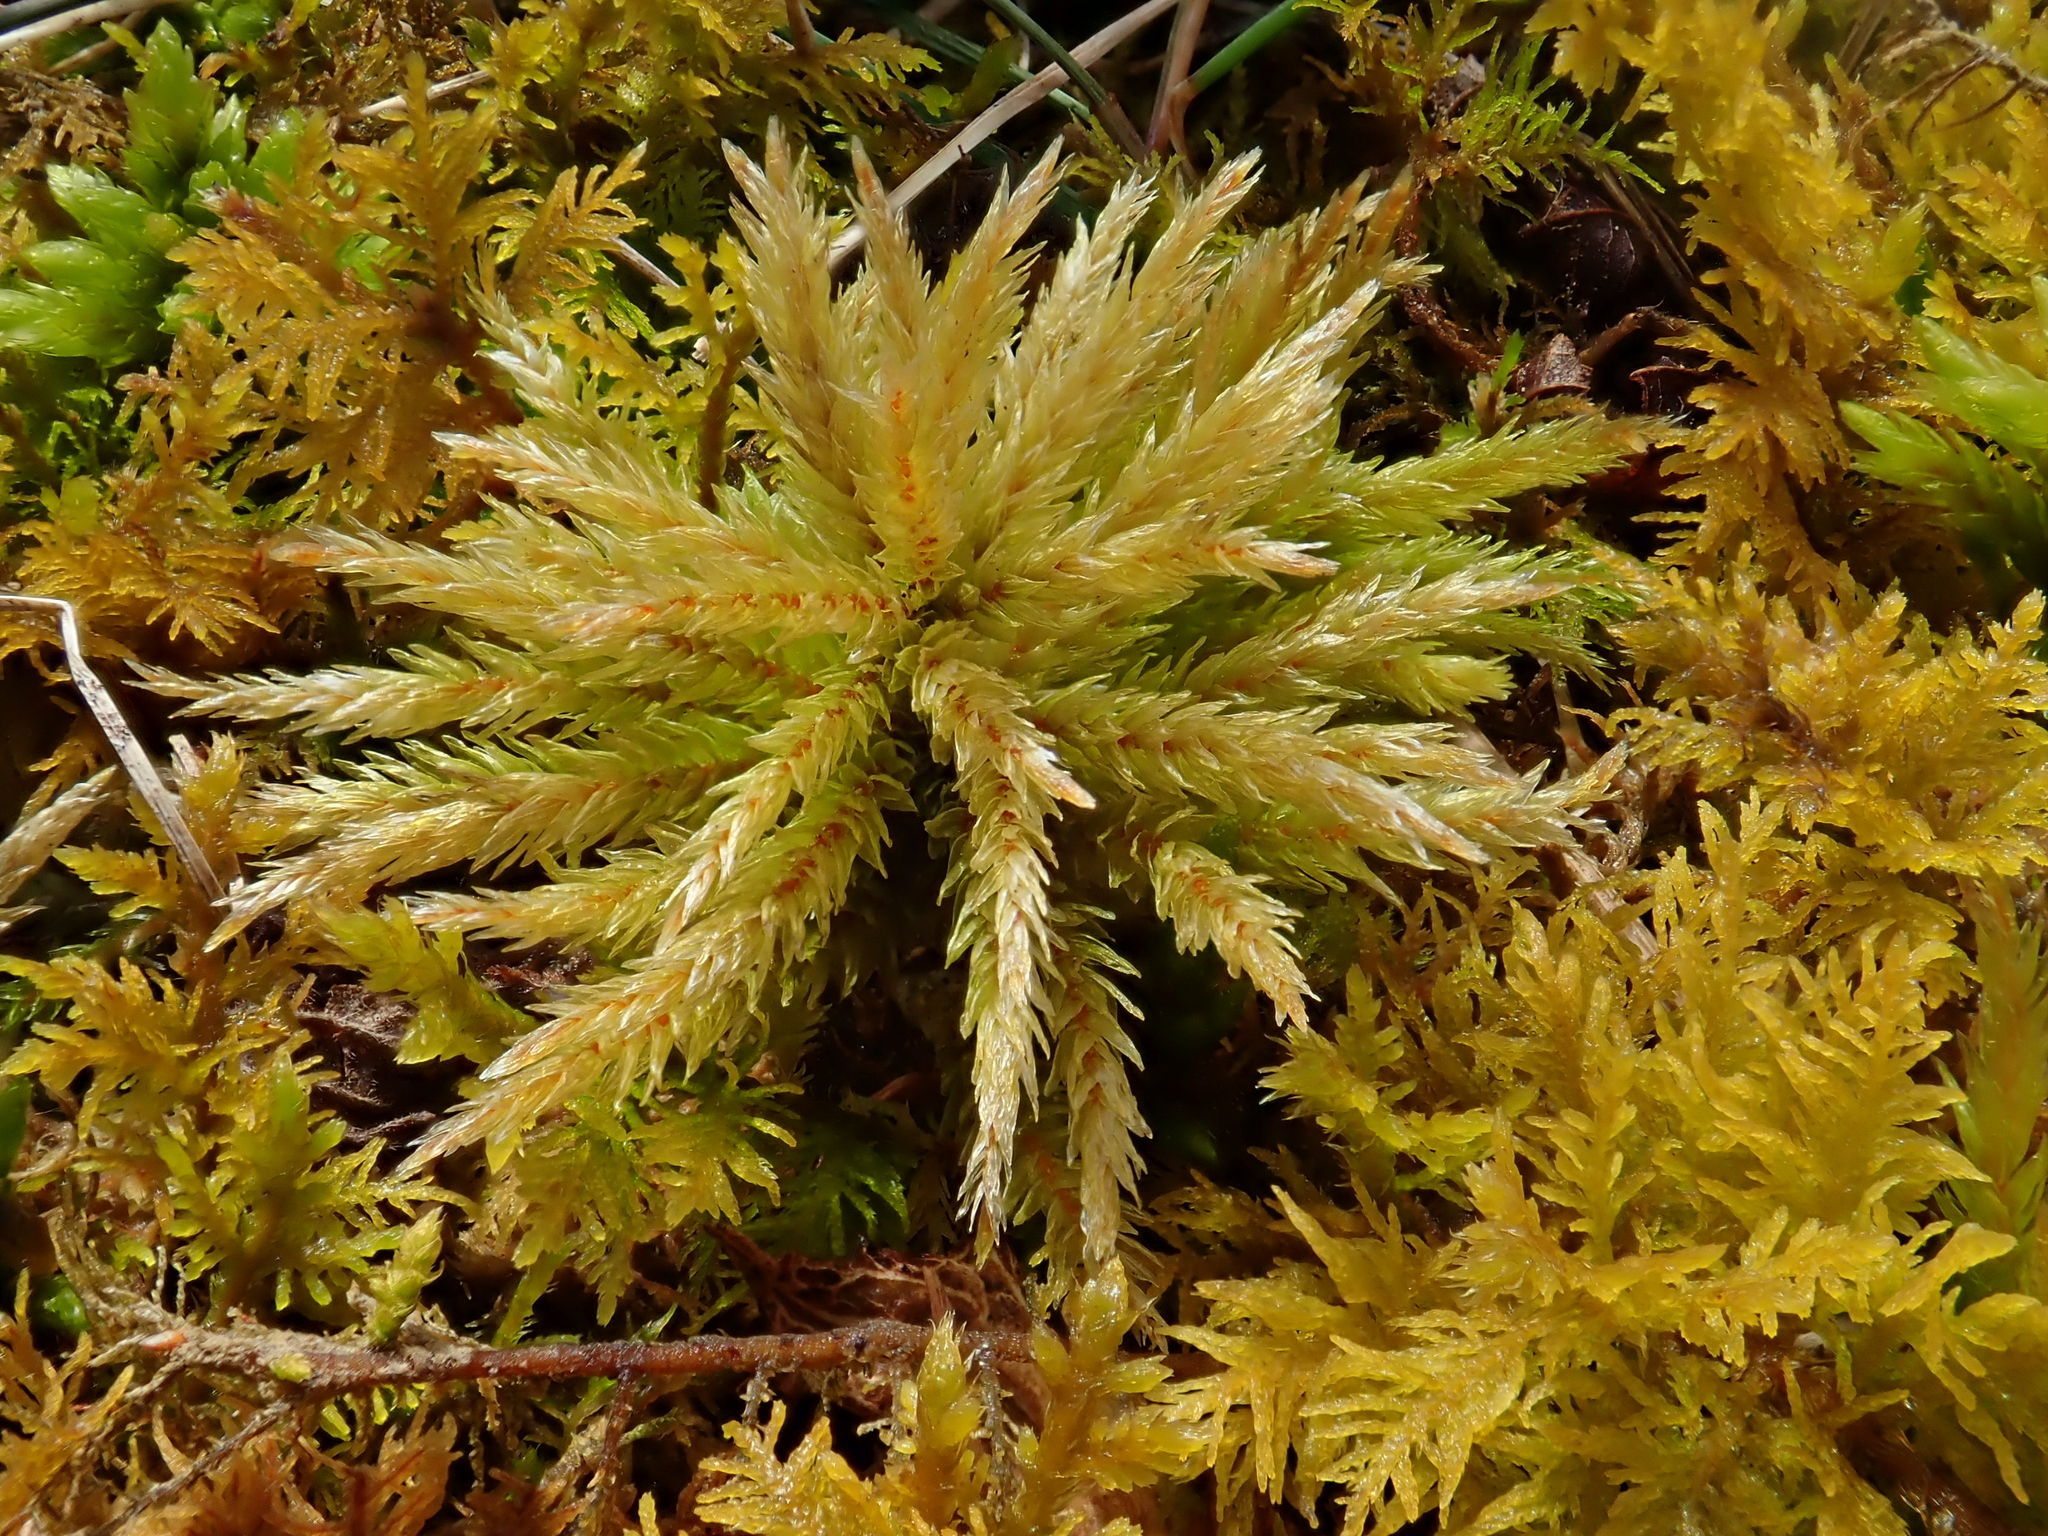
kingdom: Plantae
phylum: Bryophyta
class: Bryopsida
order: Hypnales
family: Climaciaceae
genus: Climacium
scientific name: Climacium dendroides
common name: Northern tree moss
